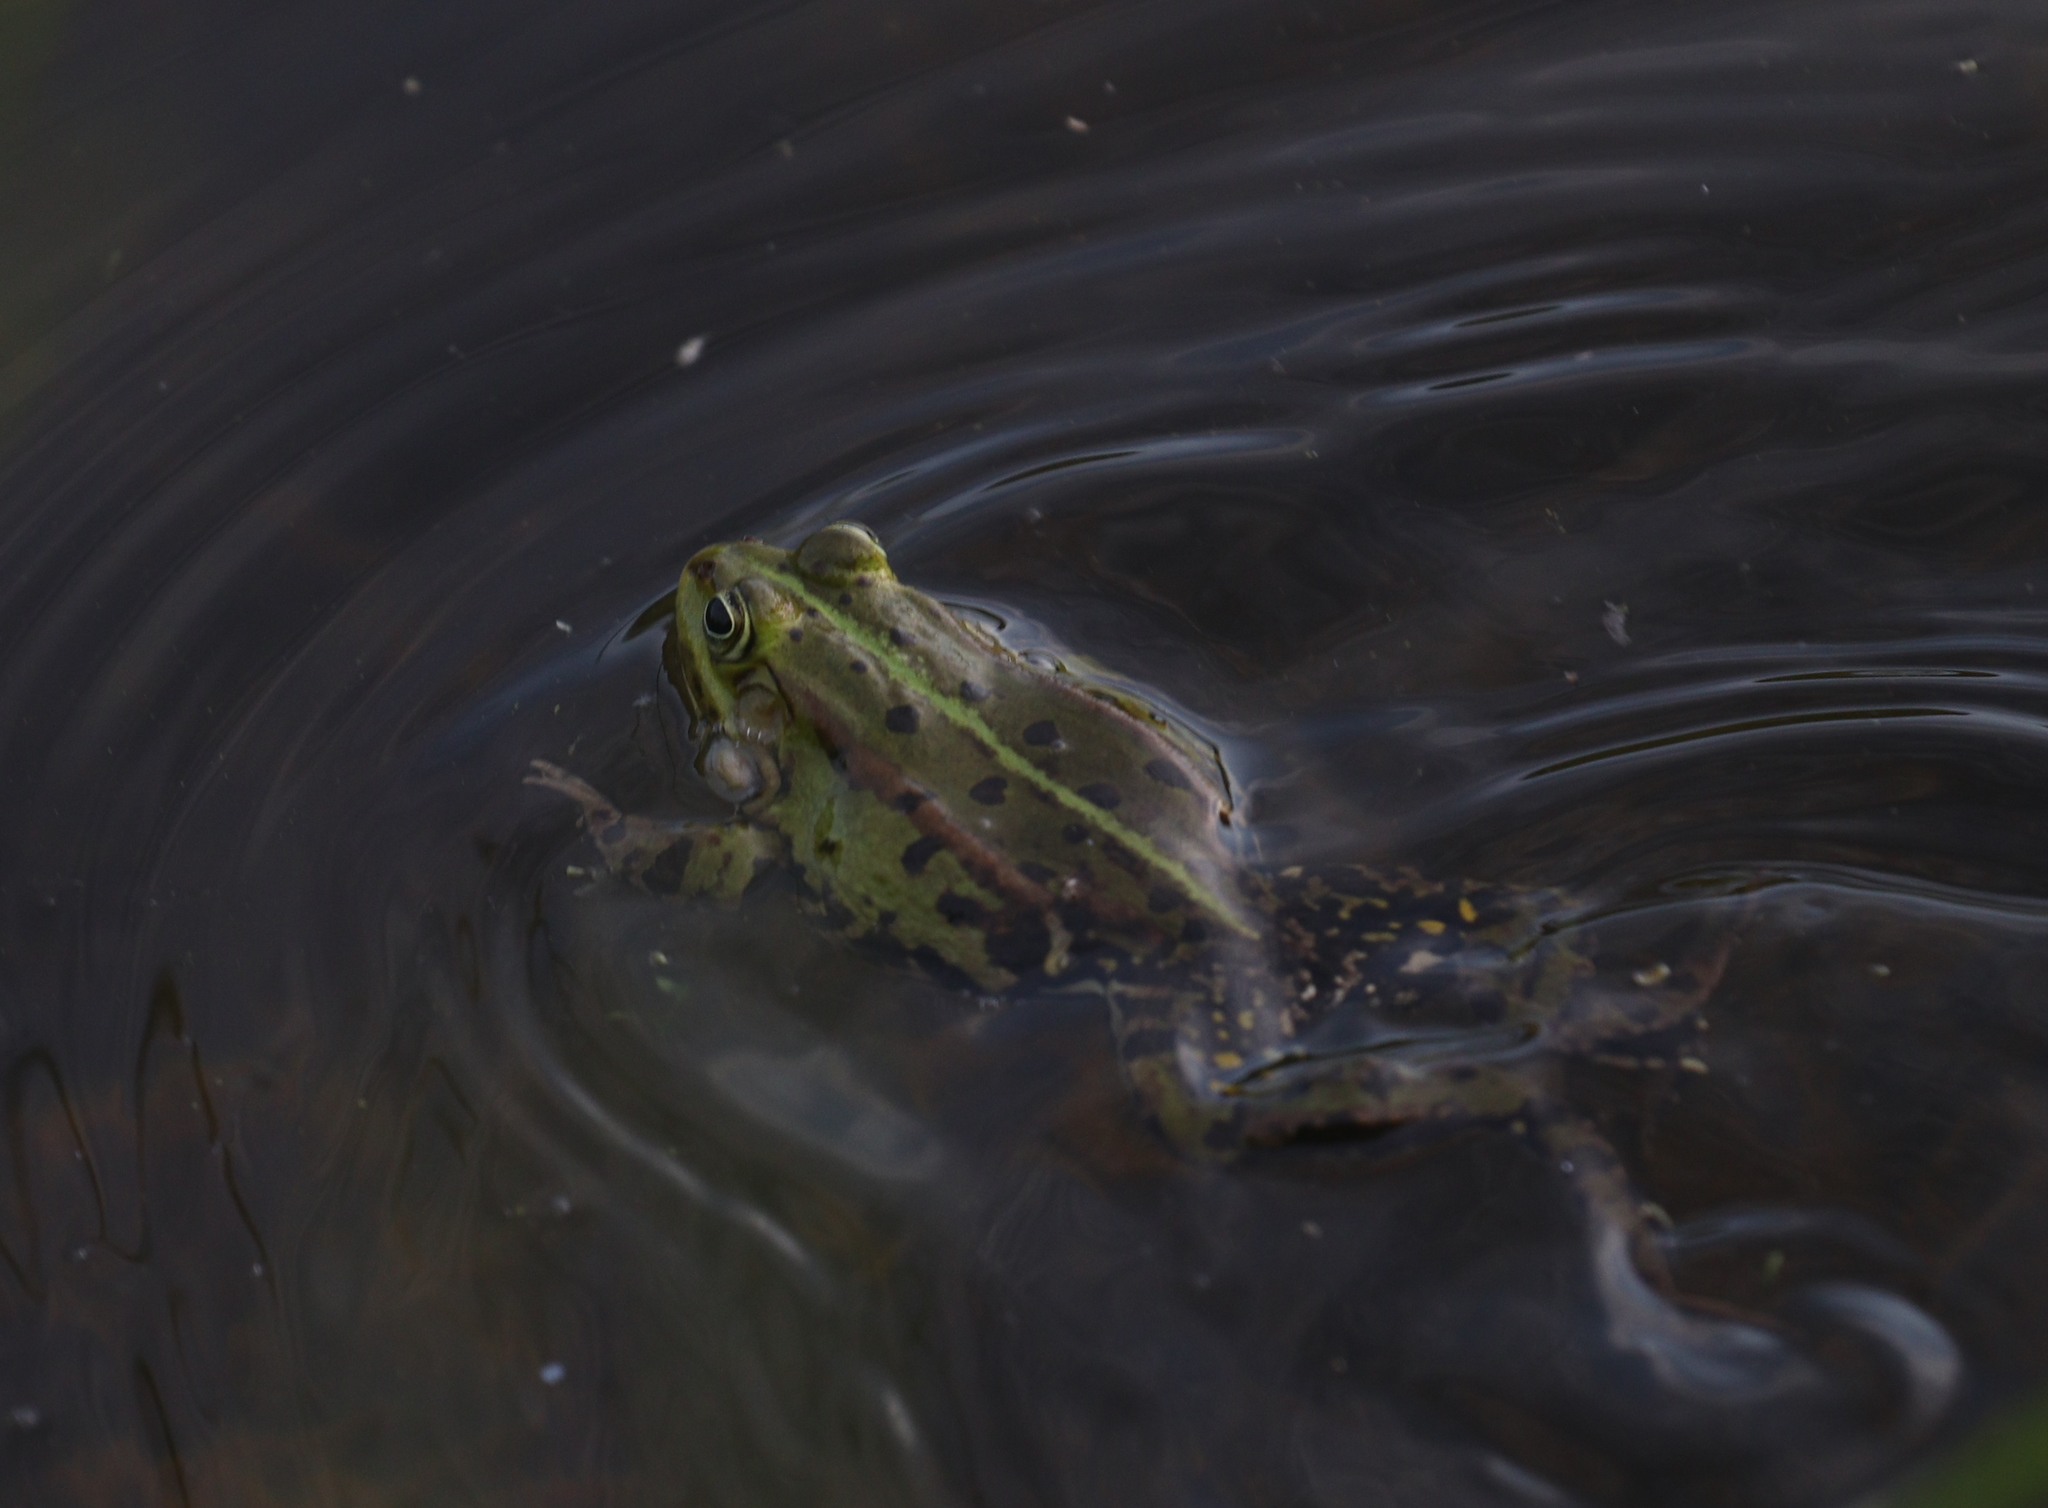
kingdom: Animalia
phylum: Chordata
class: Amphibia
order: Anura
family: Ranidae
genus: Pelophylax
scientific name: Pelophylax
